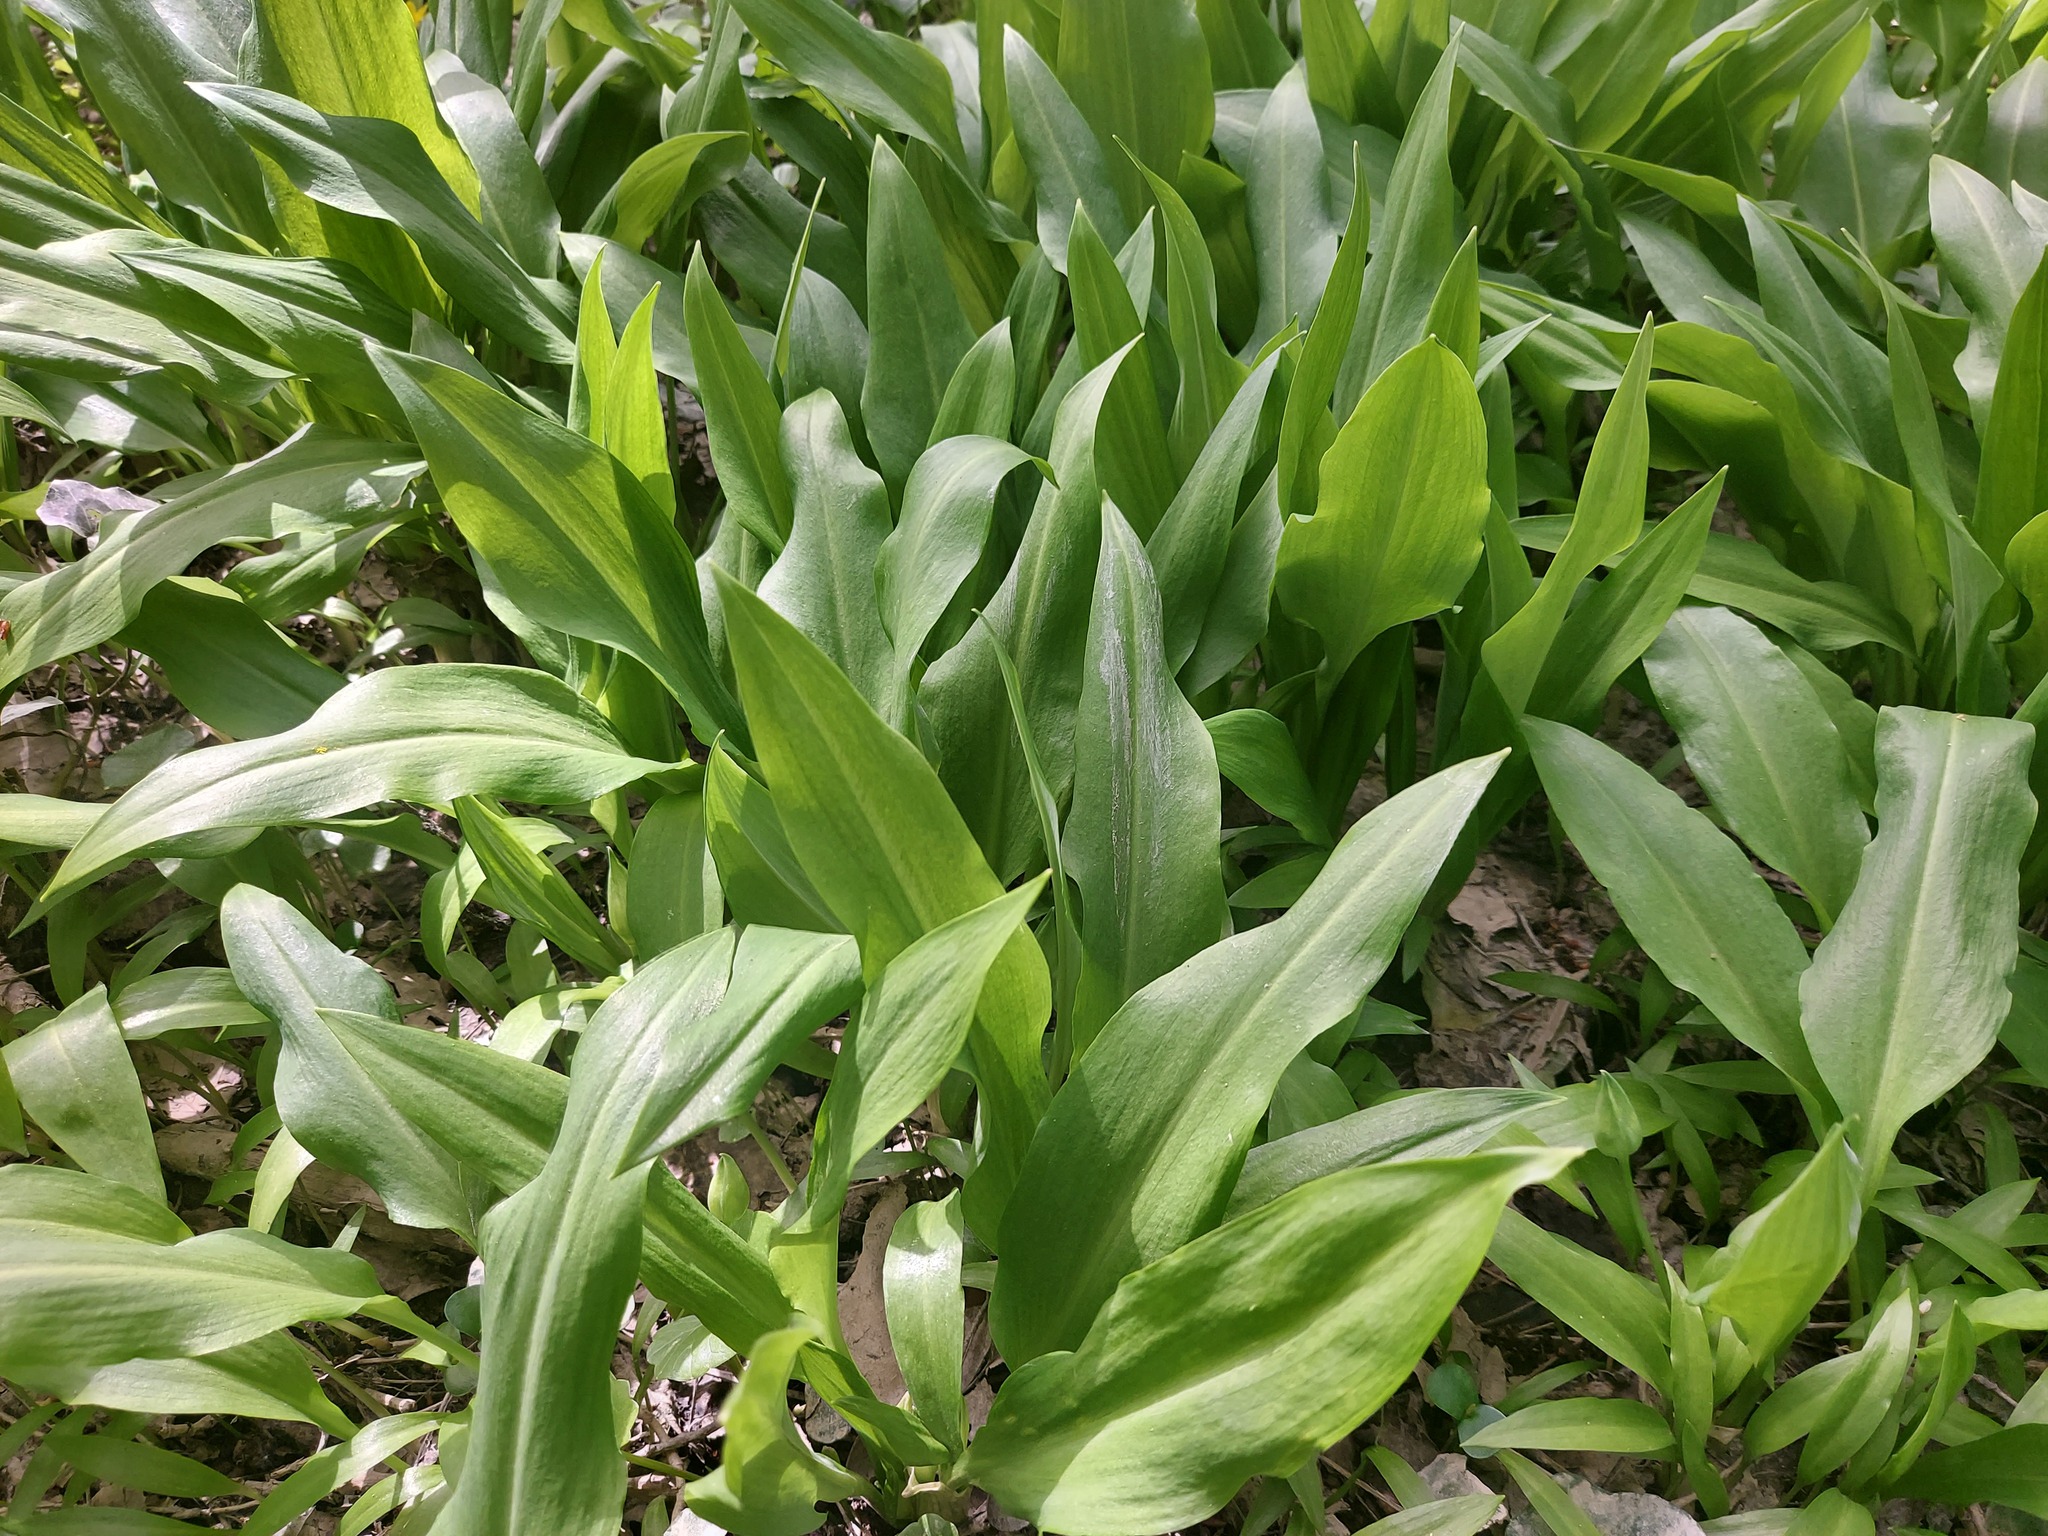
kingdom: Plantae
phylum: Tracheophyta
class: Liliopsida
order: Asparagales
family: Amaryllidaceae
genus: Allium
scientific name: Allium ursinum
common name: Ramsons
